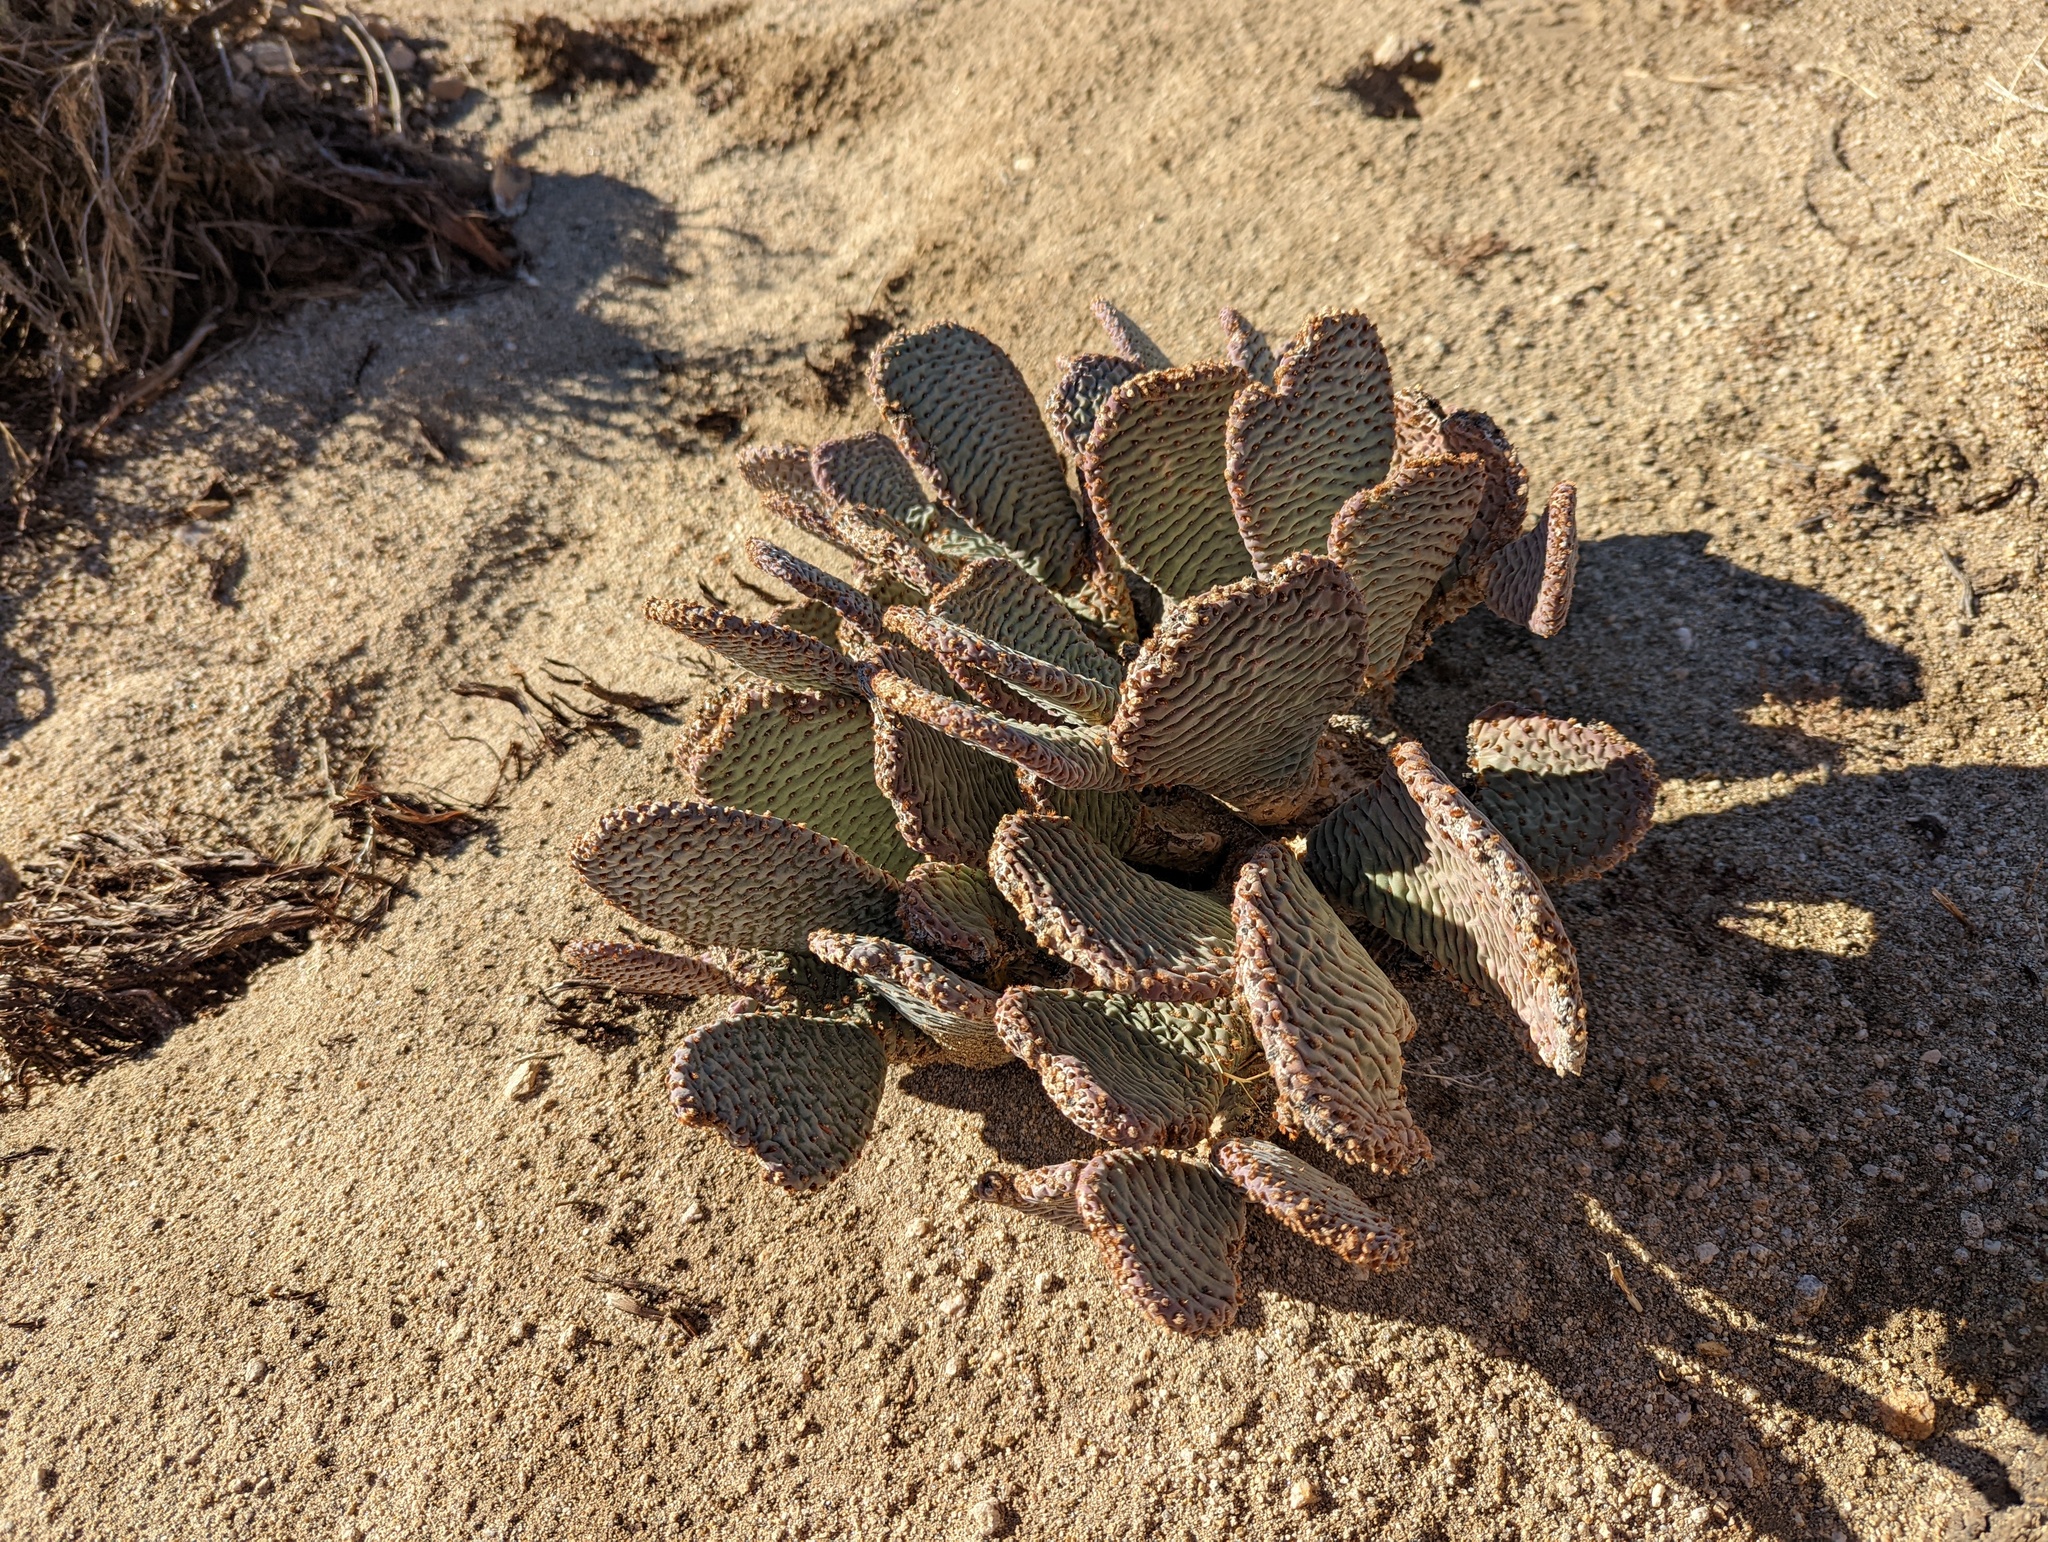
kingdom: Plantae
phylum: Tracheophyta
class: Magnoliopsida
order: Caryophyllales
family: Cactaceae
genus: Opuntia
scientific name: Opuntia basilaris
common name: Beavertail prickly-pear
